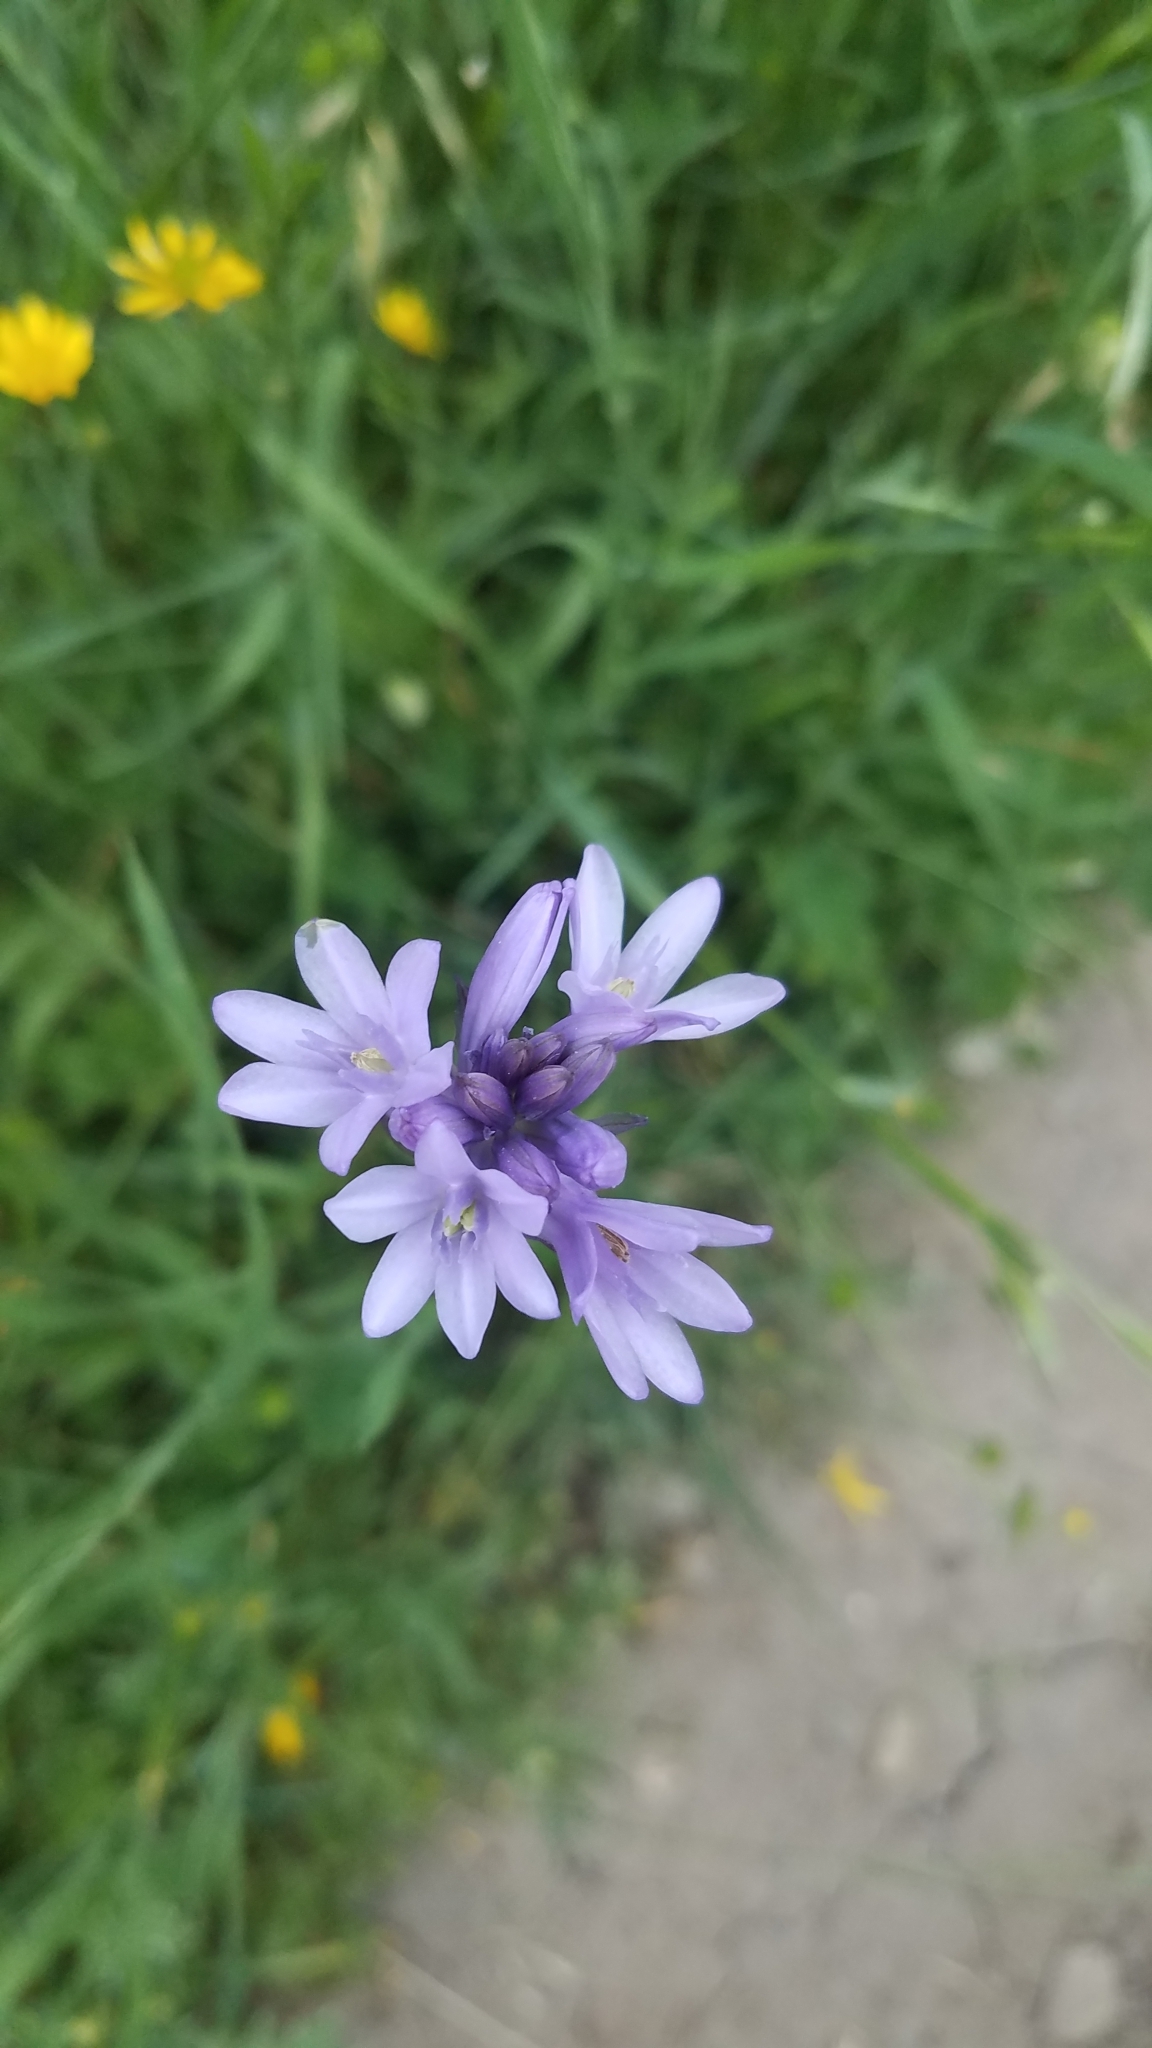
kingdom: Plantae
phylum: Tracheophyta
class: Liliopsida
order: Asparagales
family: Asparagaceae
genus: Dichelostemma
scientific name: Dichelostemma congestum
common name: Fork-tooth ookow
